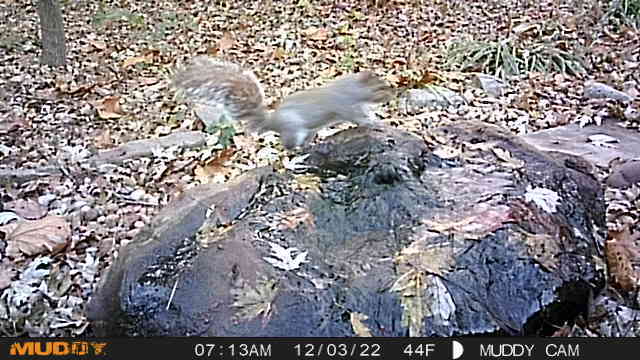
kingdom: Animalia
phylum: Chordata
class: Mammalia
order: Rodentia
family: Sciuridae
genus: Sciurus
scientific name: Sciurus carolinensis
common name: Eastern gray squirrel
